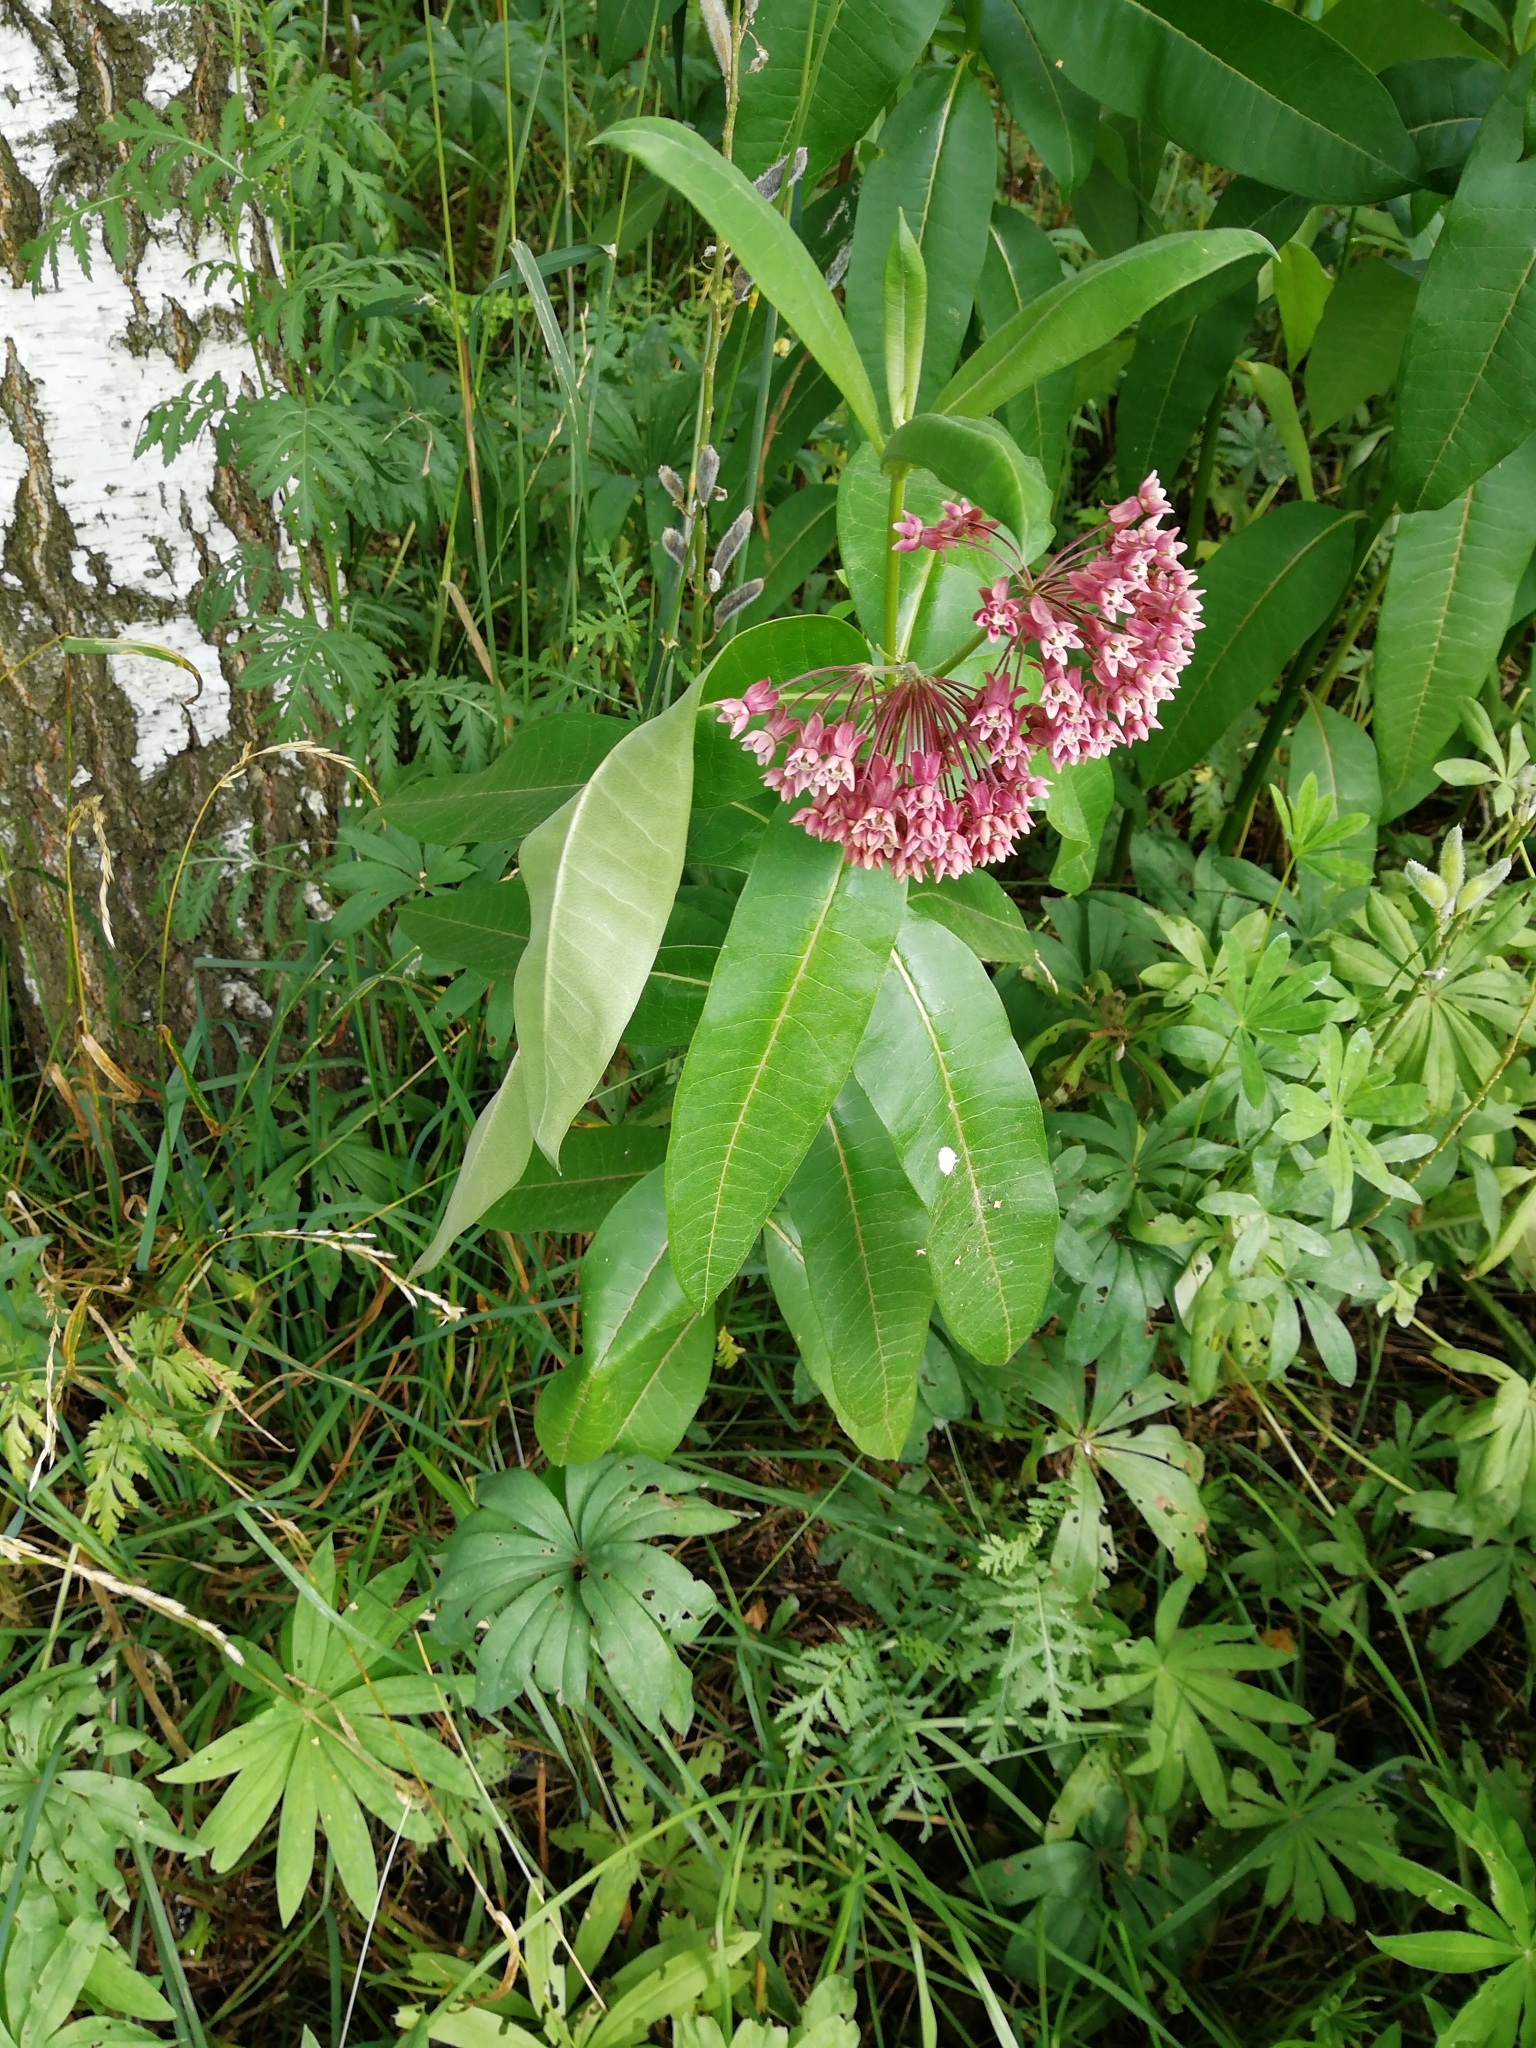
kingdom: Plantae
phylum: Tracheophyta
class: Magnoliopsida
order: Gentianales
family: Apocynaceae
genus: Asclepias
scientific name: Asclepias syriaca
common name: Common milkweed
